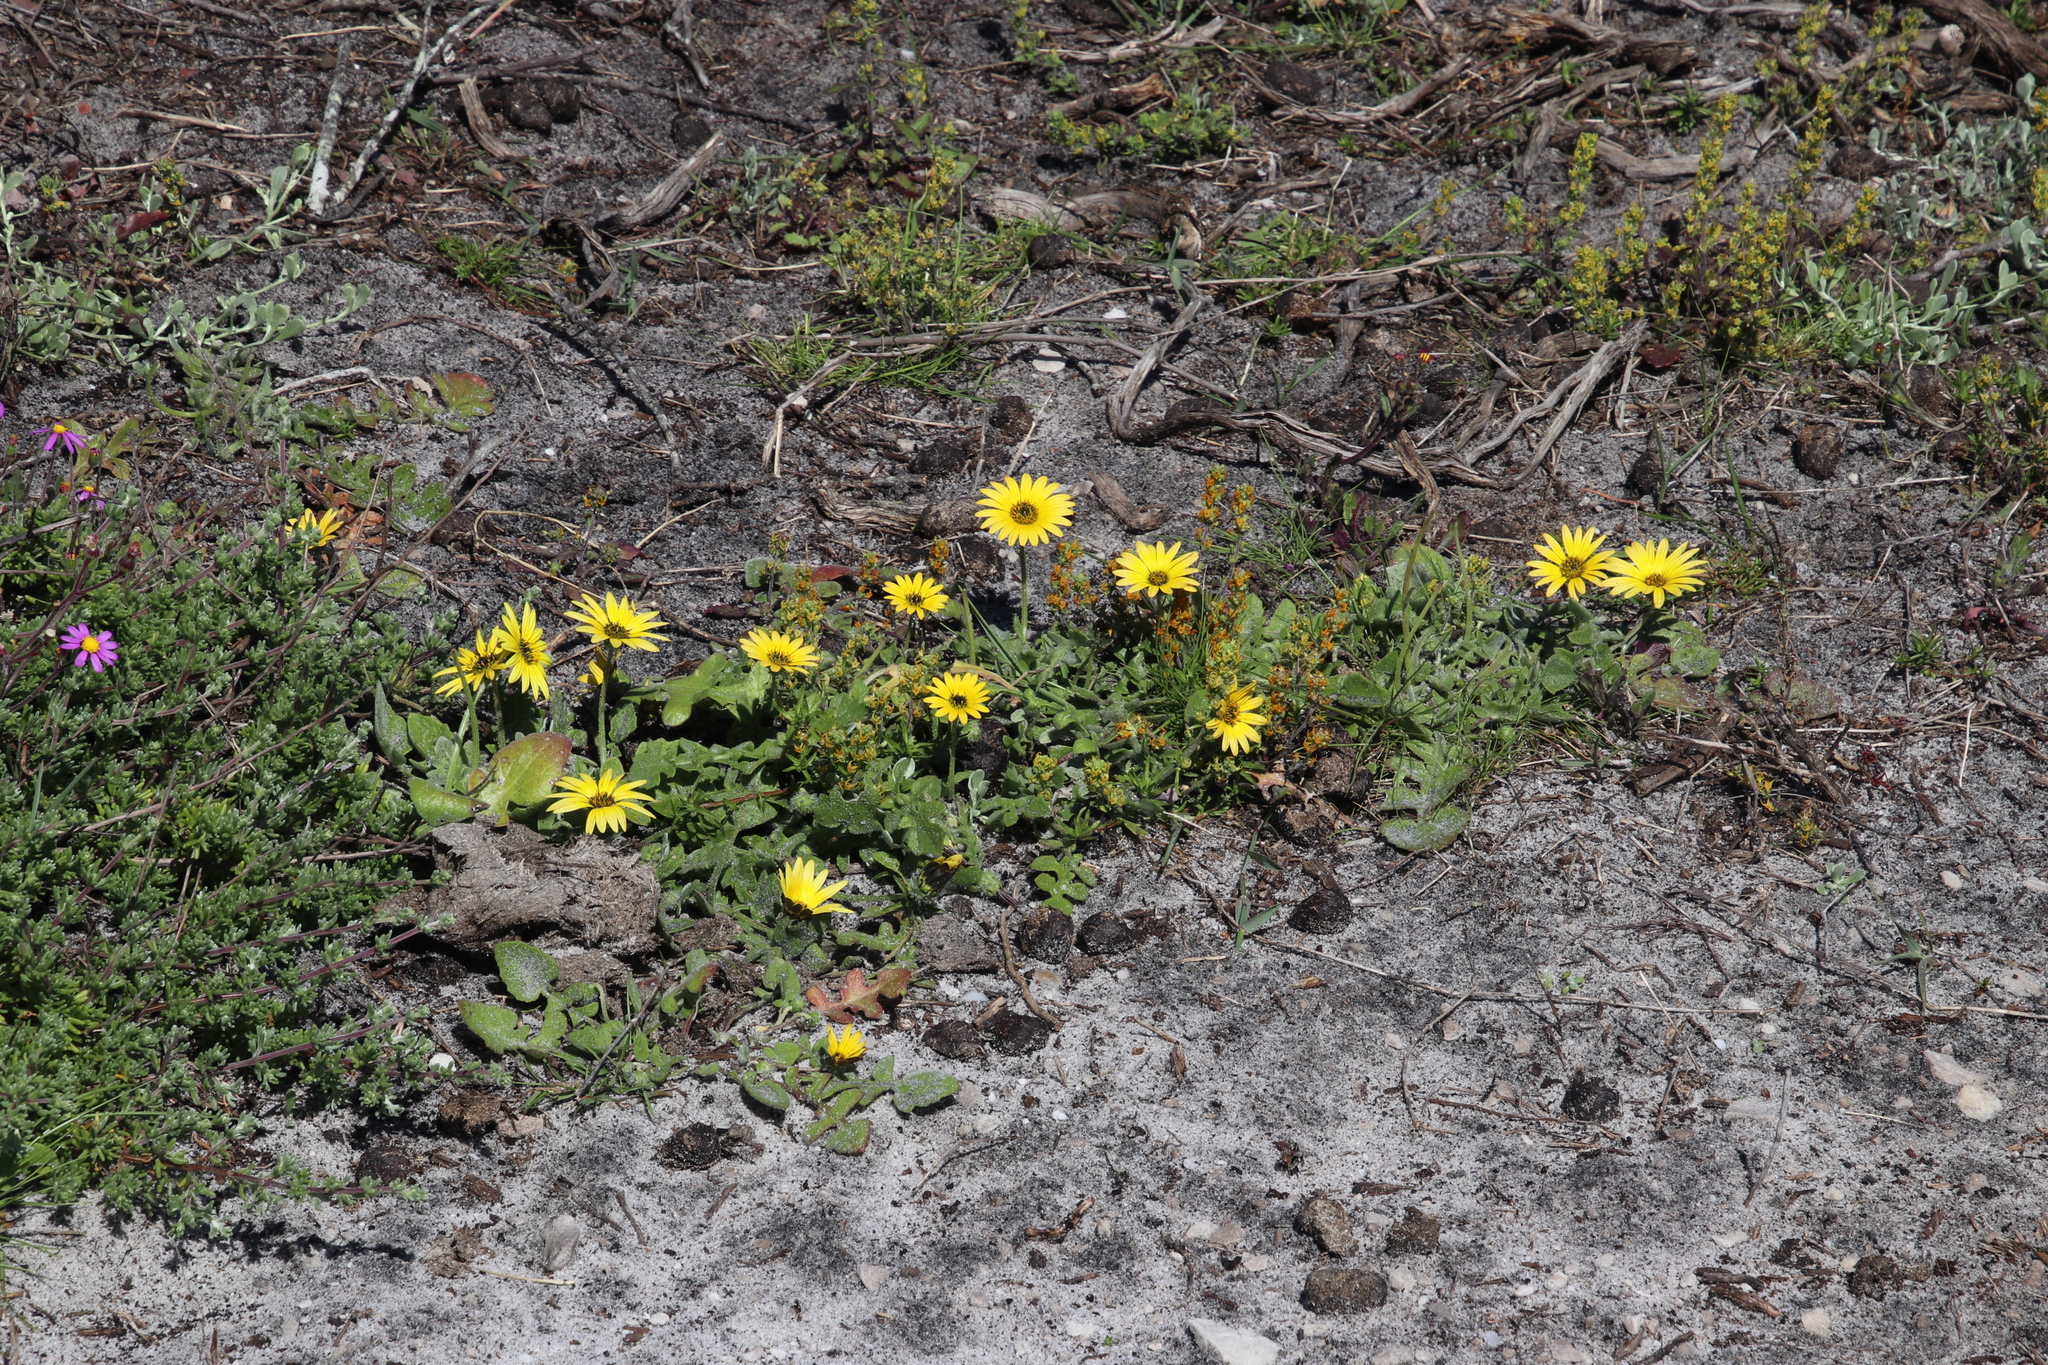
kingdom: Plantae
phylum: Tracheophyta
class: Magnoliopsida
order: Asterales
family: Asteraceae
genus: Arctotheca
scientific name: Arctotheca calendula
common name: Capeweed
